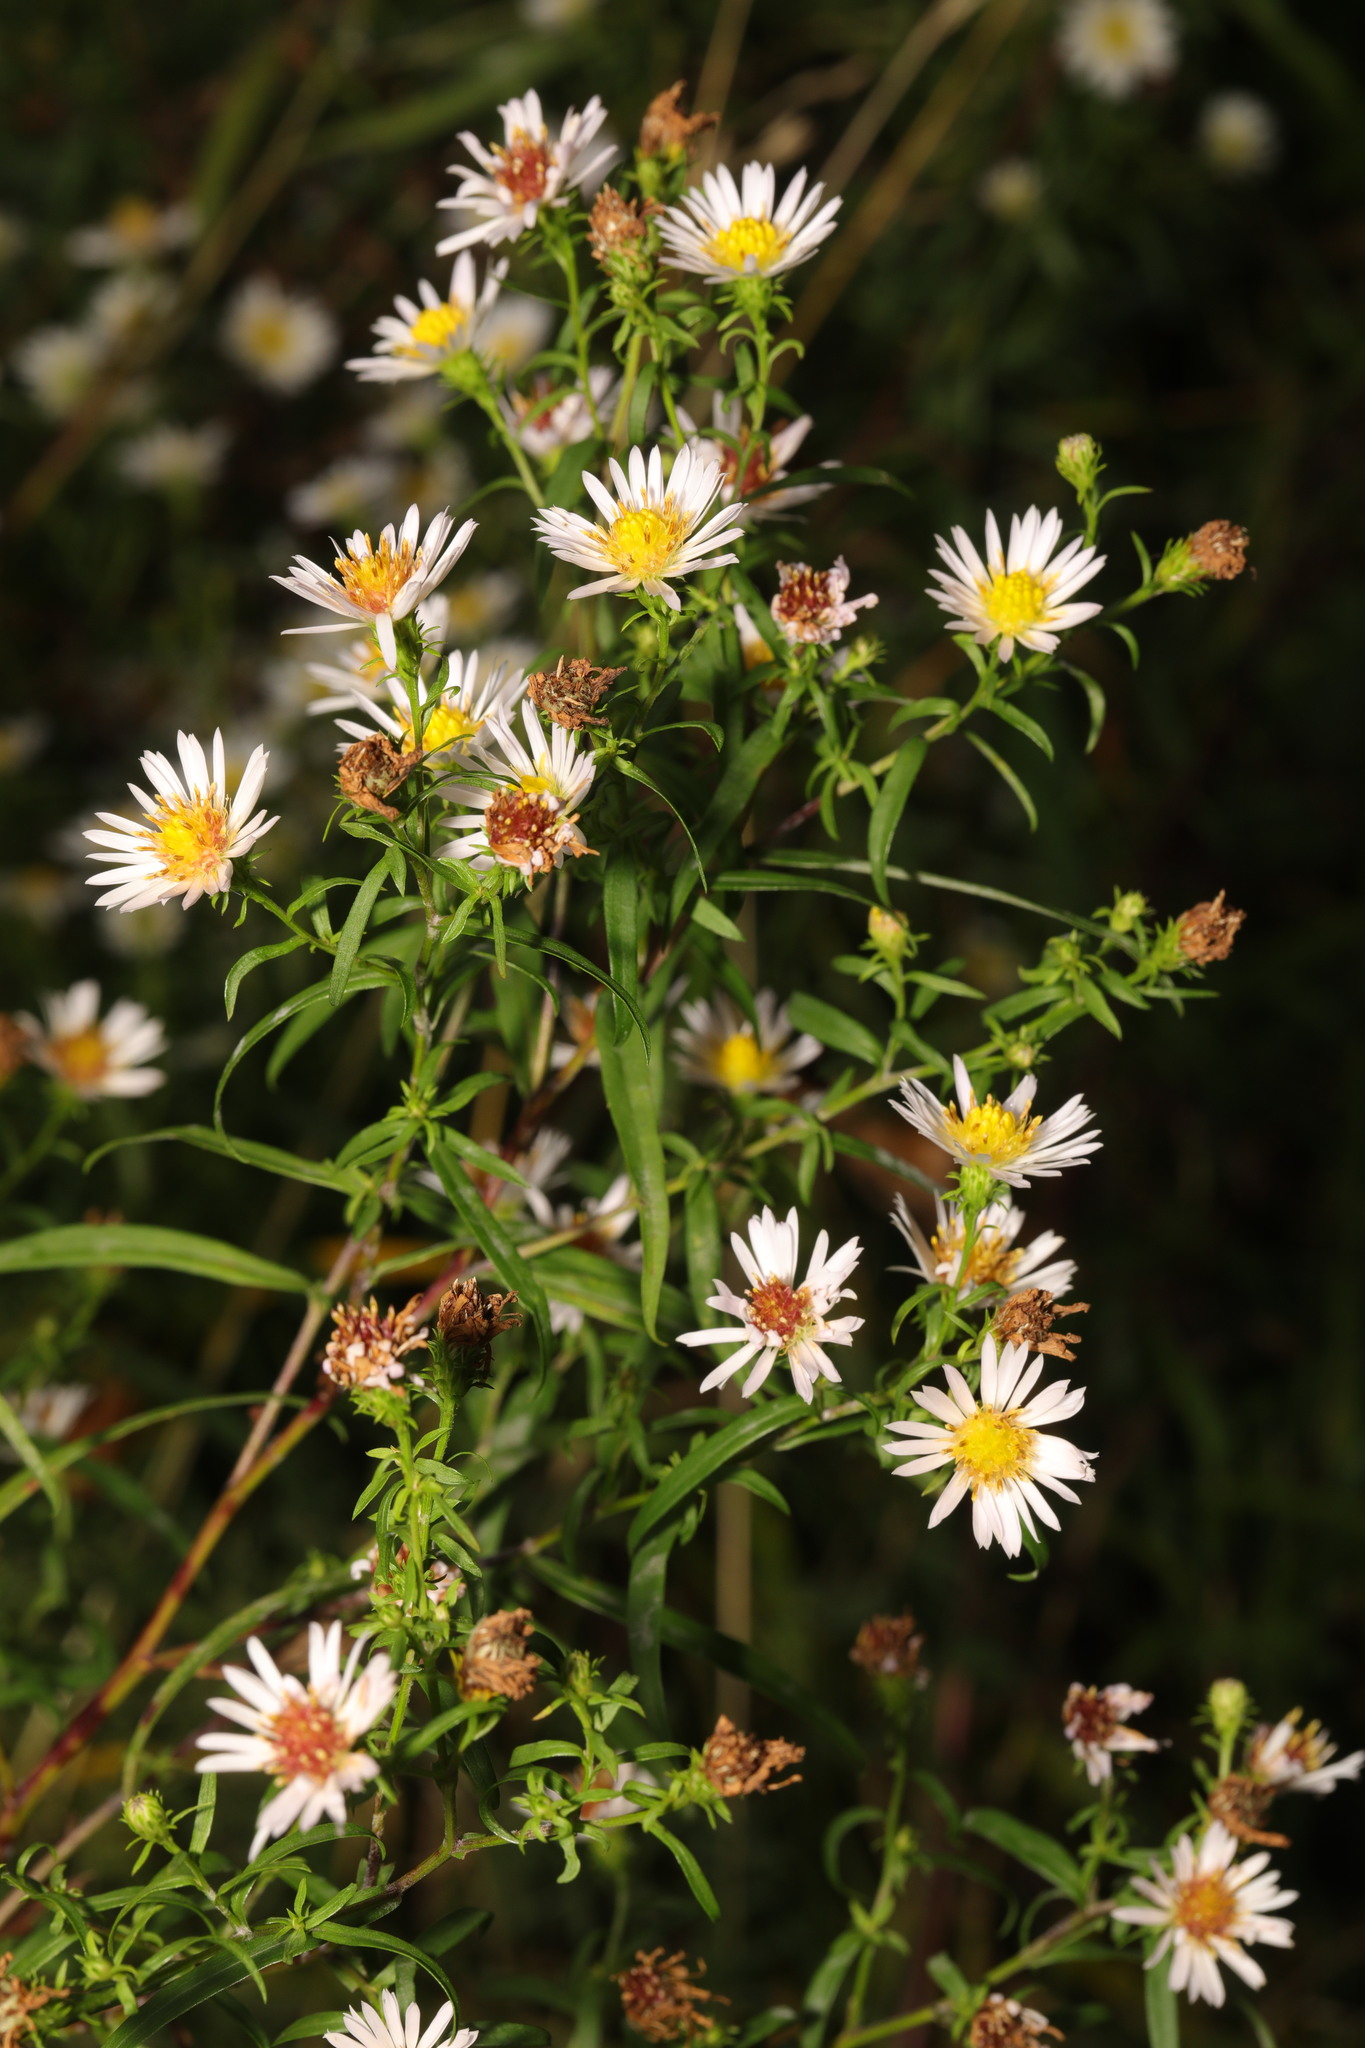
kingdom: Plantae
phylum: Tracheophyta
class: Magnoliopsida
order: Asterales
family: Asteraceae
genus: Symphyotrichum
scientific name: Symphyotrichum
